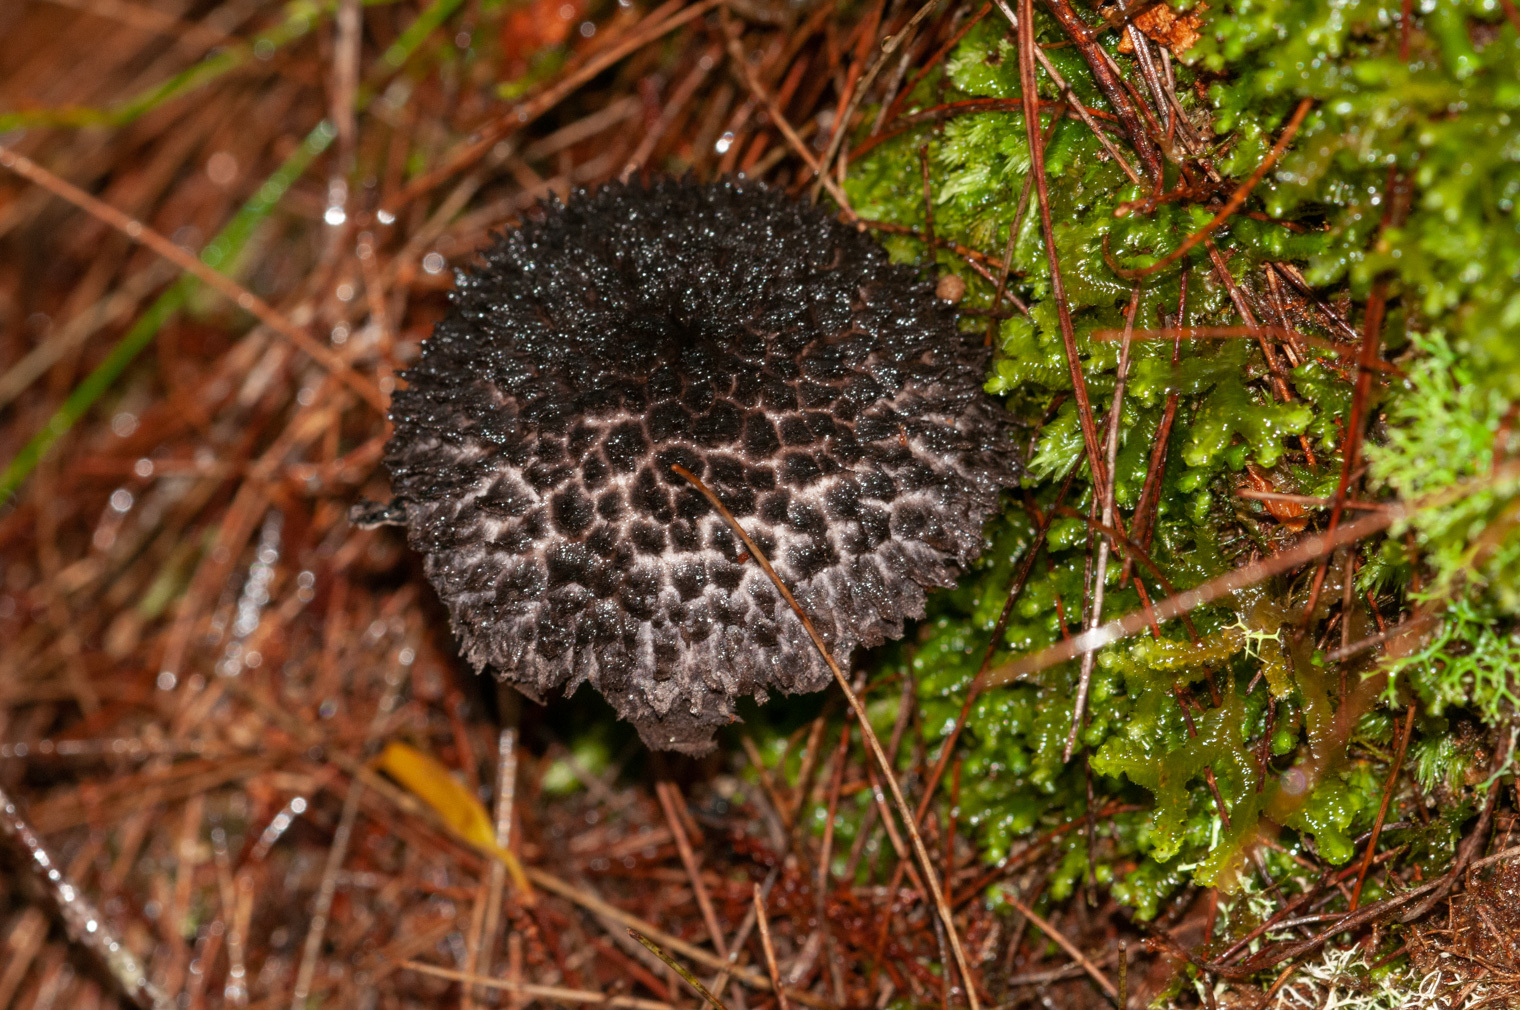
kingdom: Fungi
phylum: Basidiomycota
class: Agaricomycetes
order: Boletales
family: Boletaceae
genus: Strobilomyces
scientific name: Strobilomyces strobilaceus
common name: Old man of the woods
